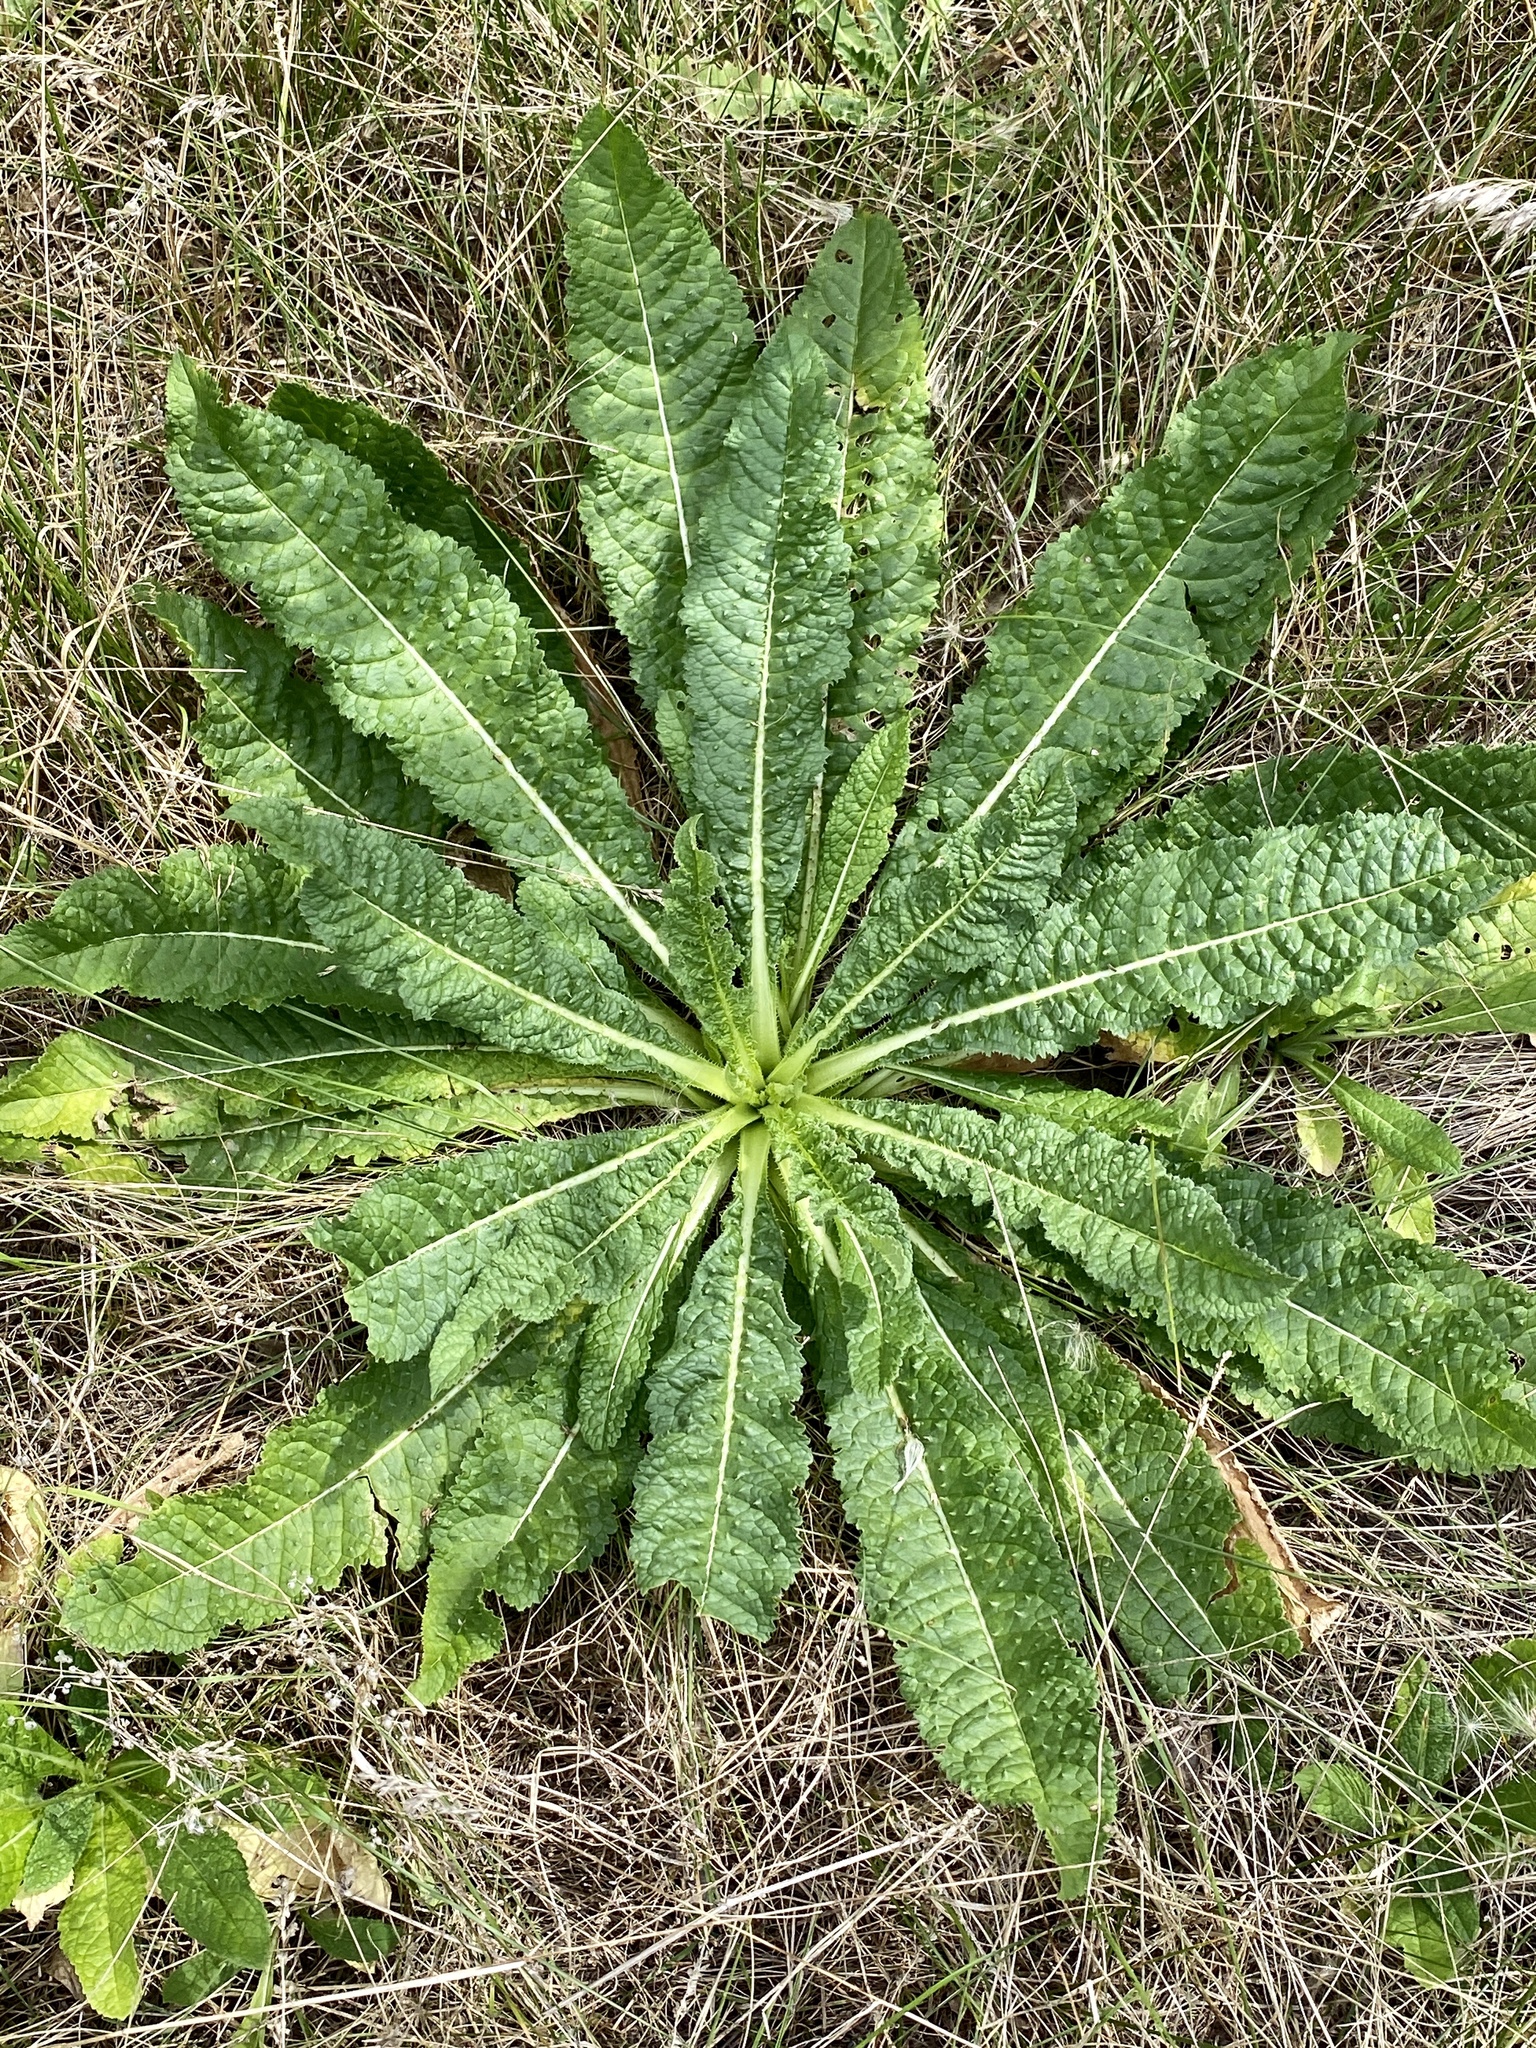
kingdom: Plantae
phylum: Tracheophyta
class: Magnoliopsida
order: Dipsacales
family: Caprifoliaceae
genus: Dipsacus
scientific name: Dipsacus fullonum
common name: Teasel
